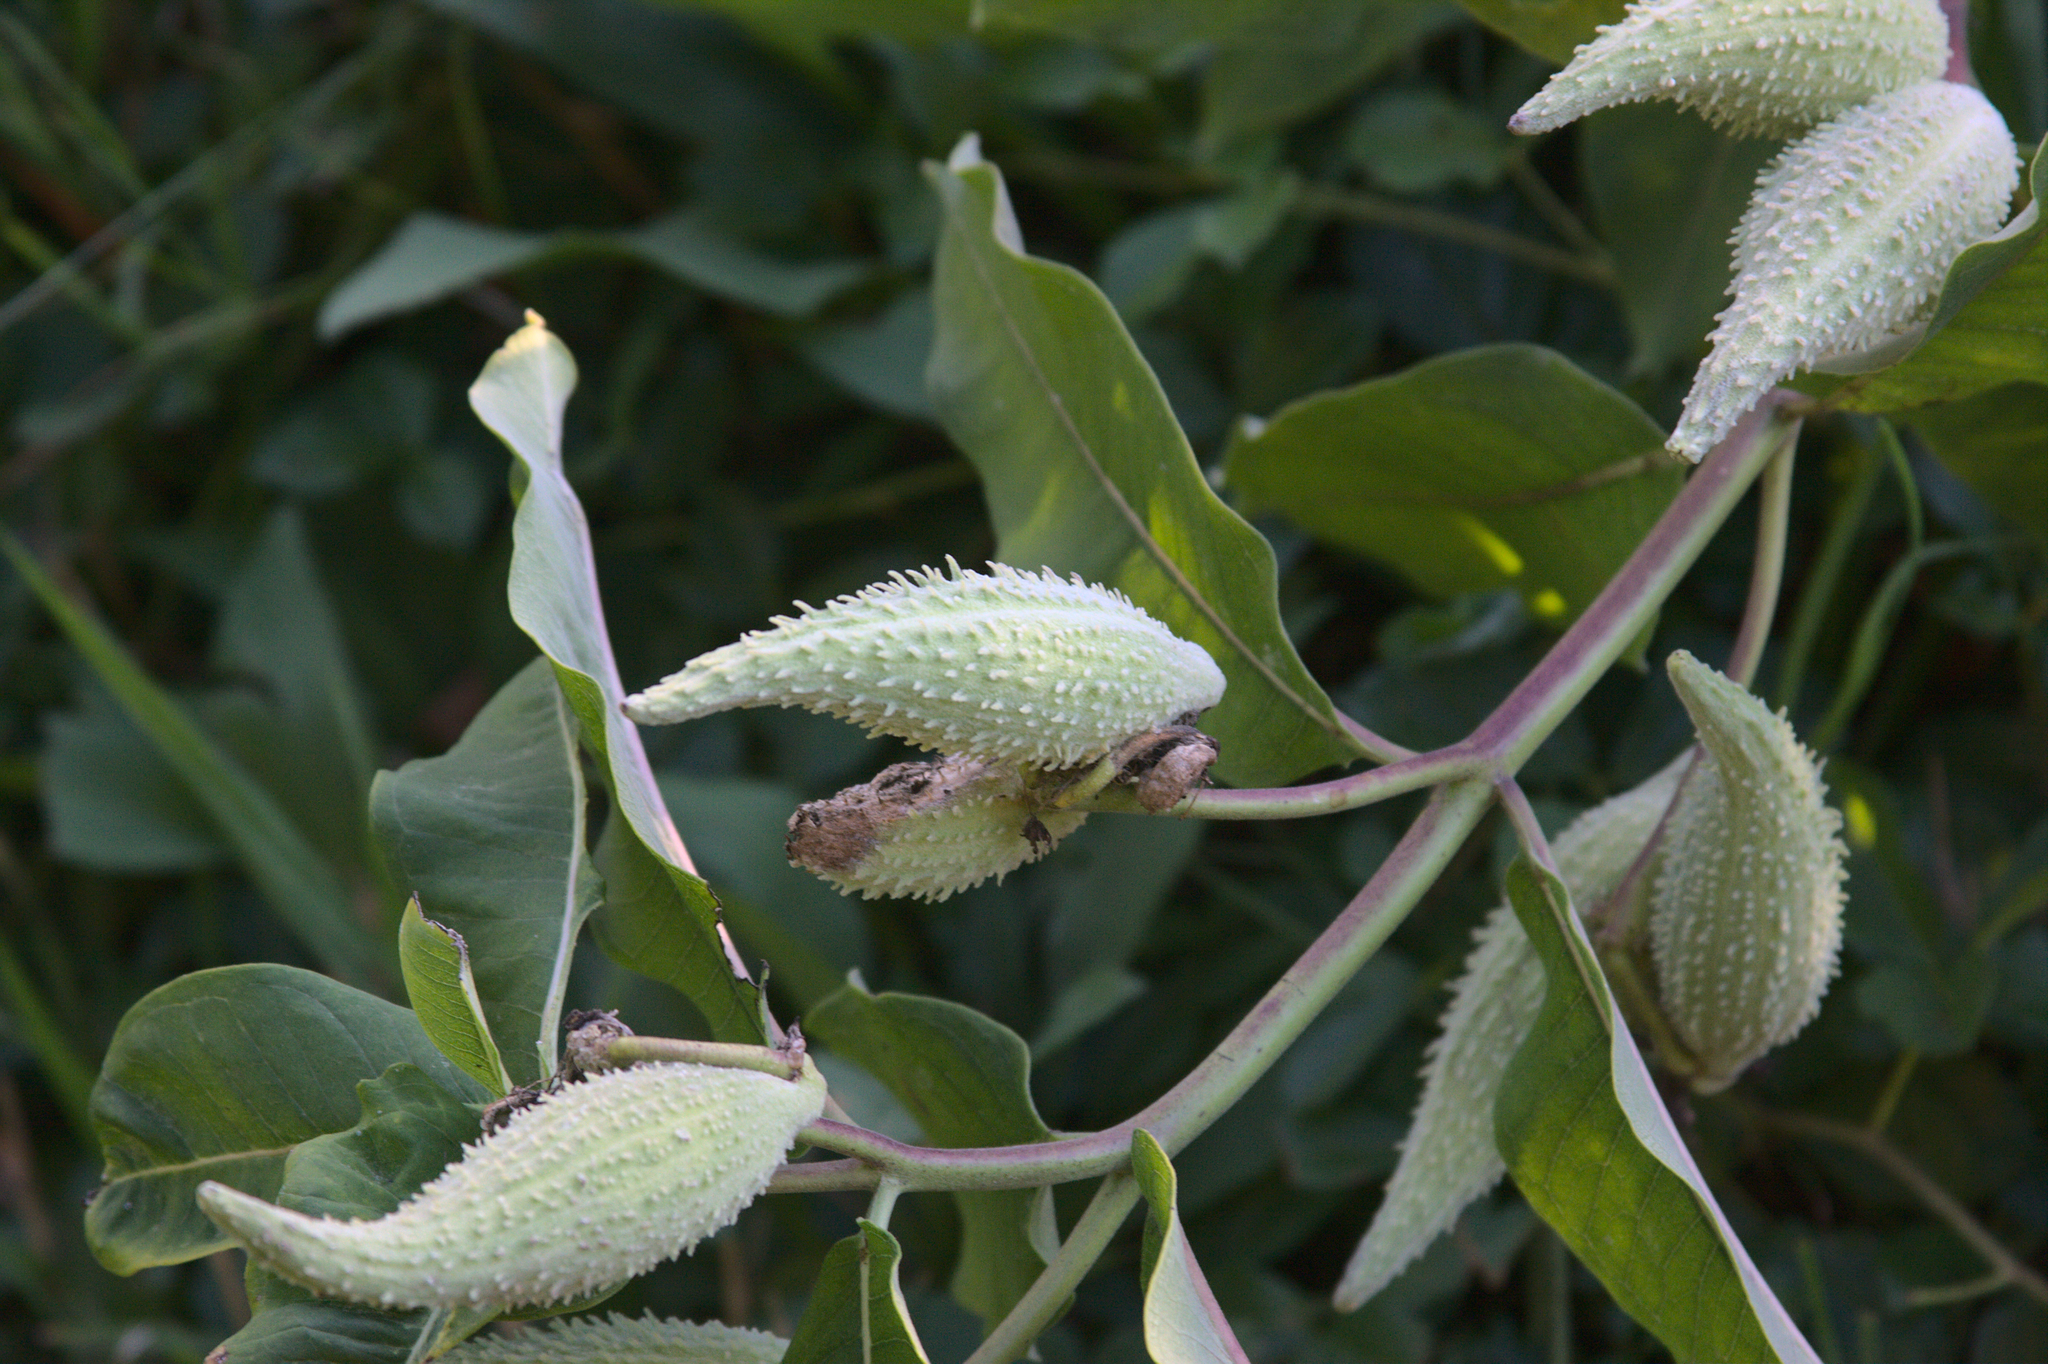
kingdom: Plantae
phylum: Tracheophyta
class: Magnoliopsida
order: Gentianales
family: Apocynaceae
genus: Asclepias
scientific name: Asclepias syriaca
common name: Common milkweed
